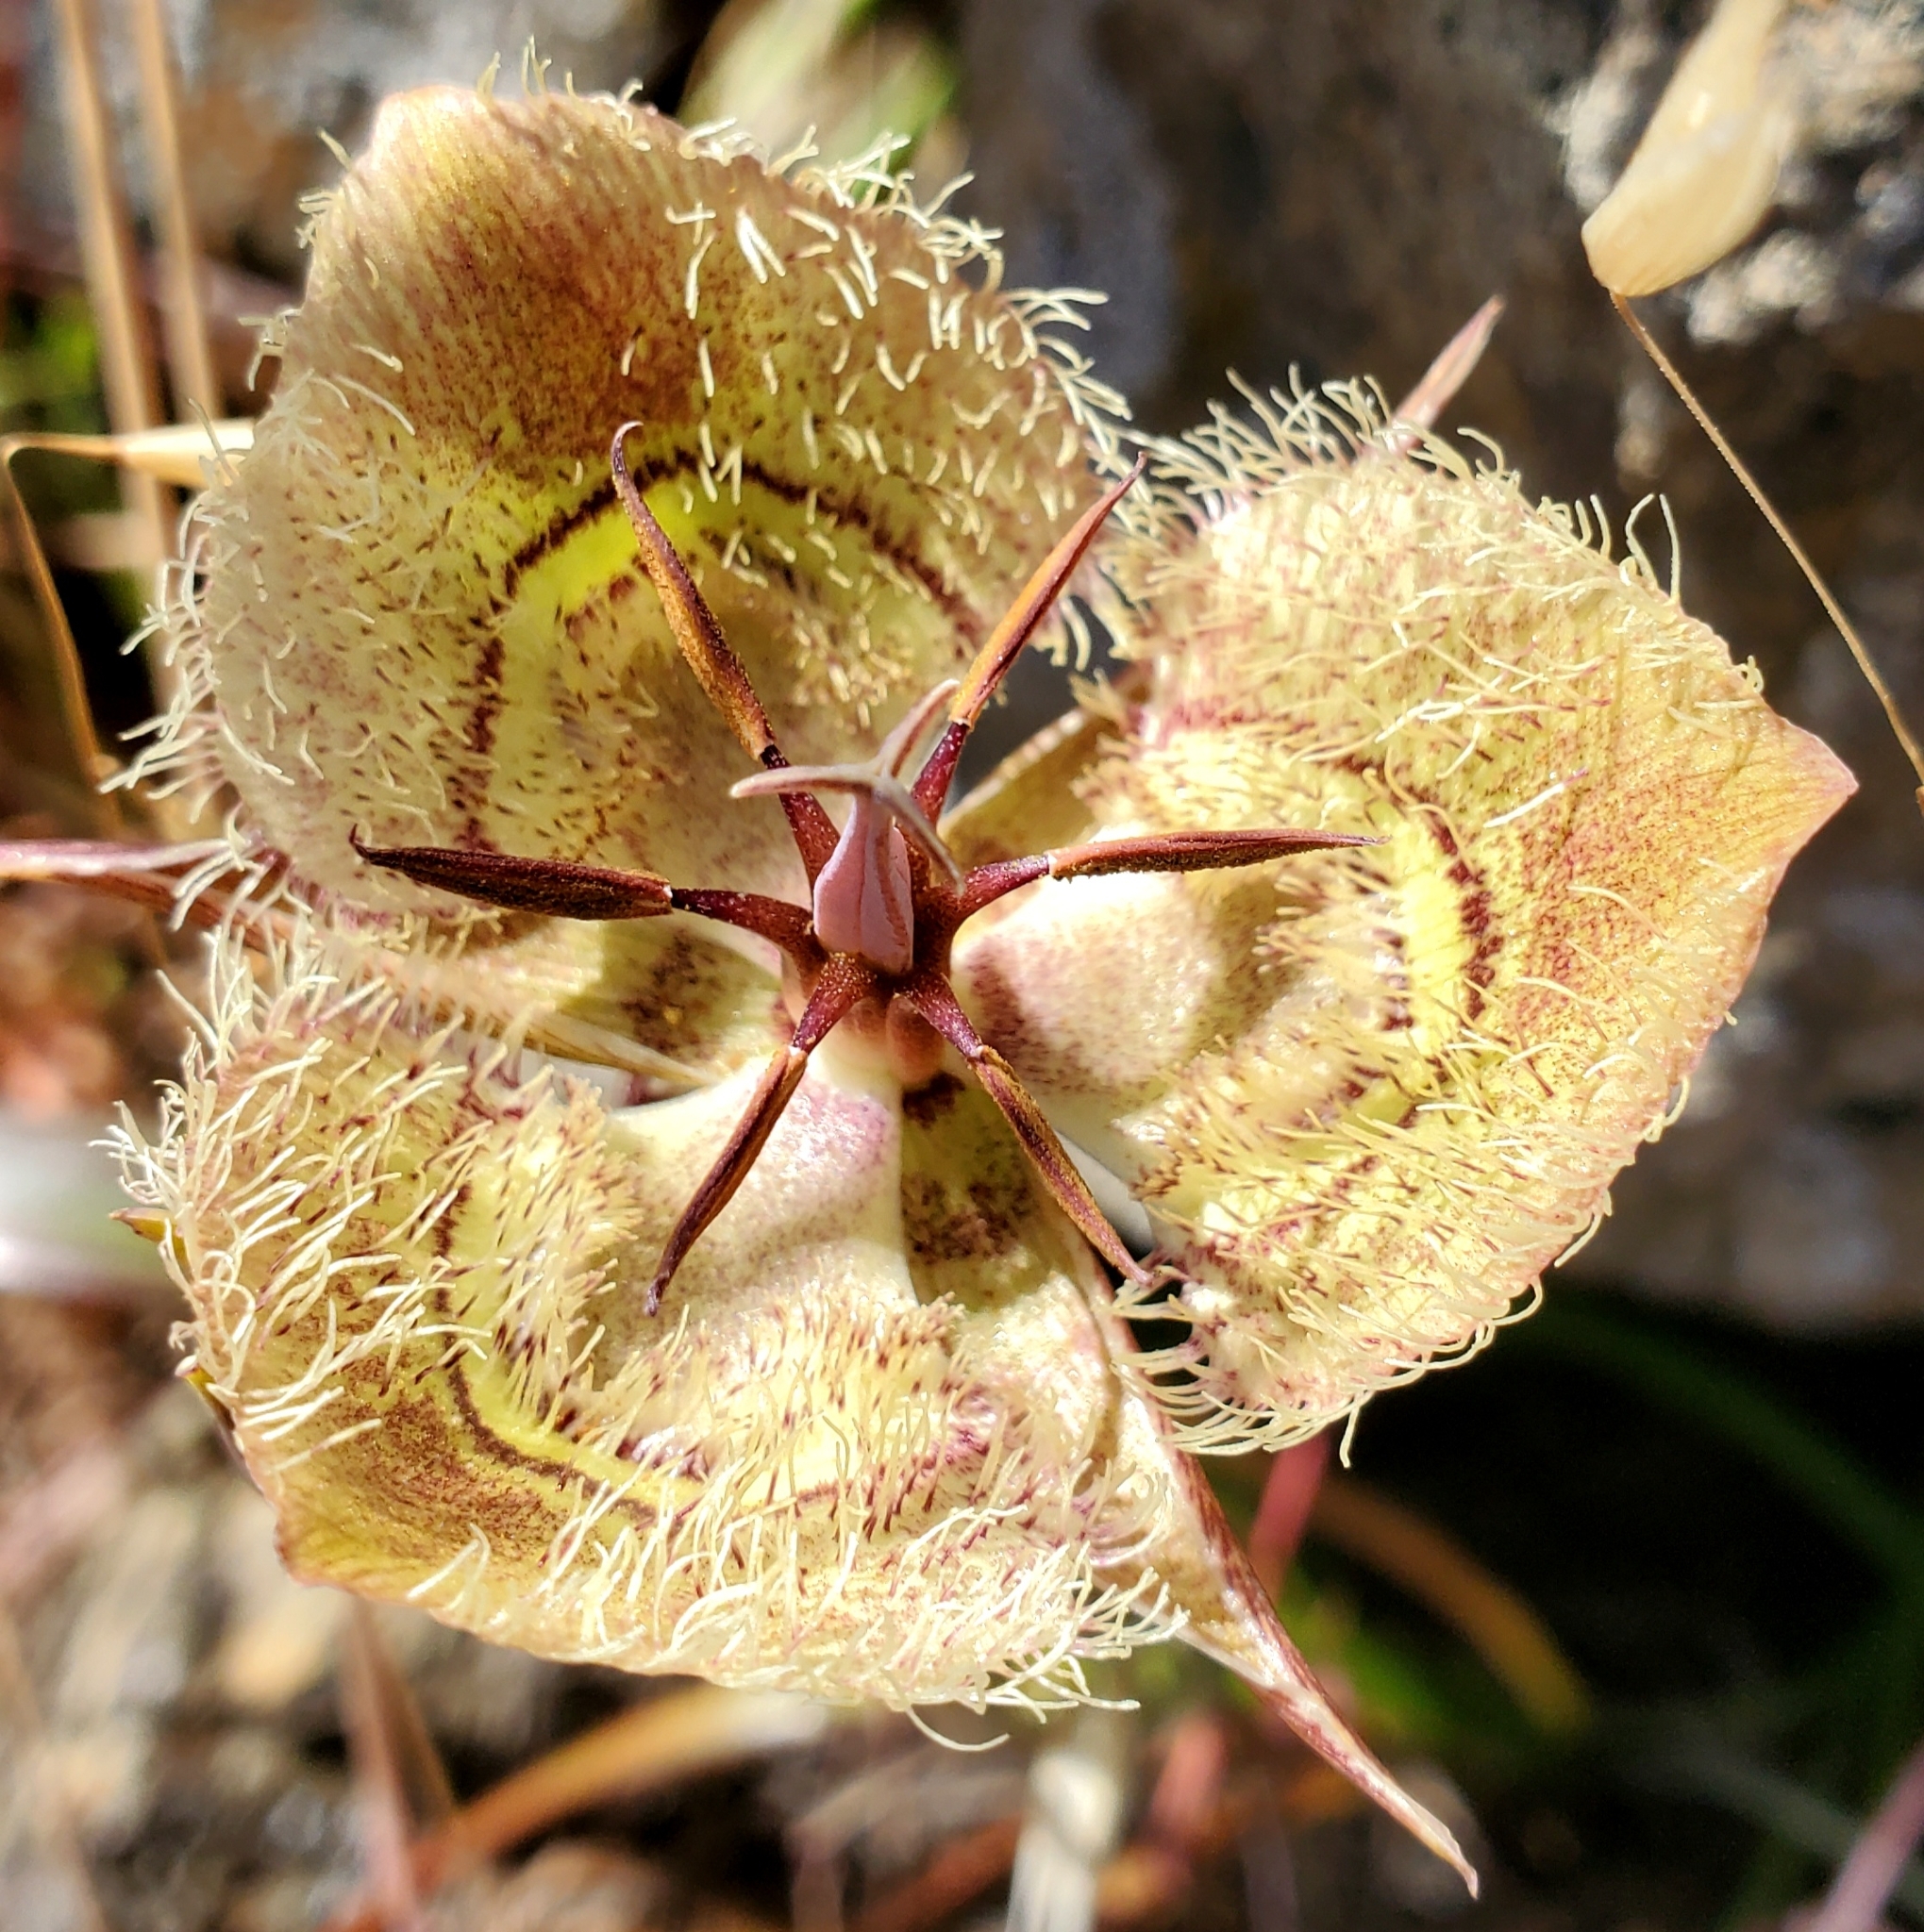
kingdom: Plantae
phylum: Tracheophyta
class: Liliopsida
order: Liliales
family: Liliaceae
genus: Calochortus
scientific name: Calochortus tiburonensis
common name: Tiburon mariposa-lily
